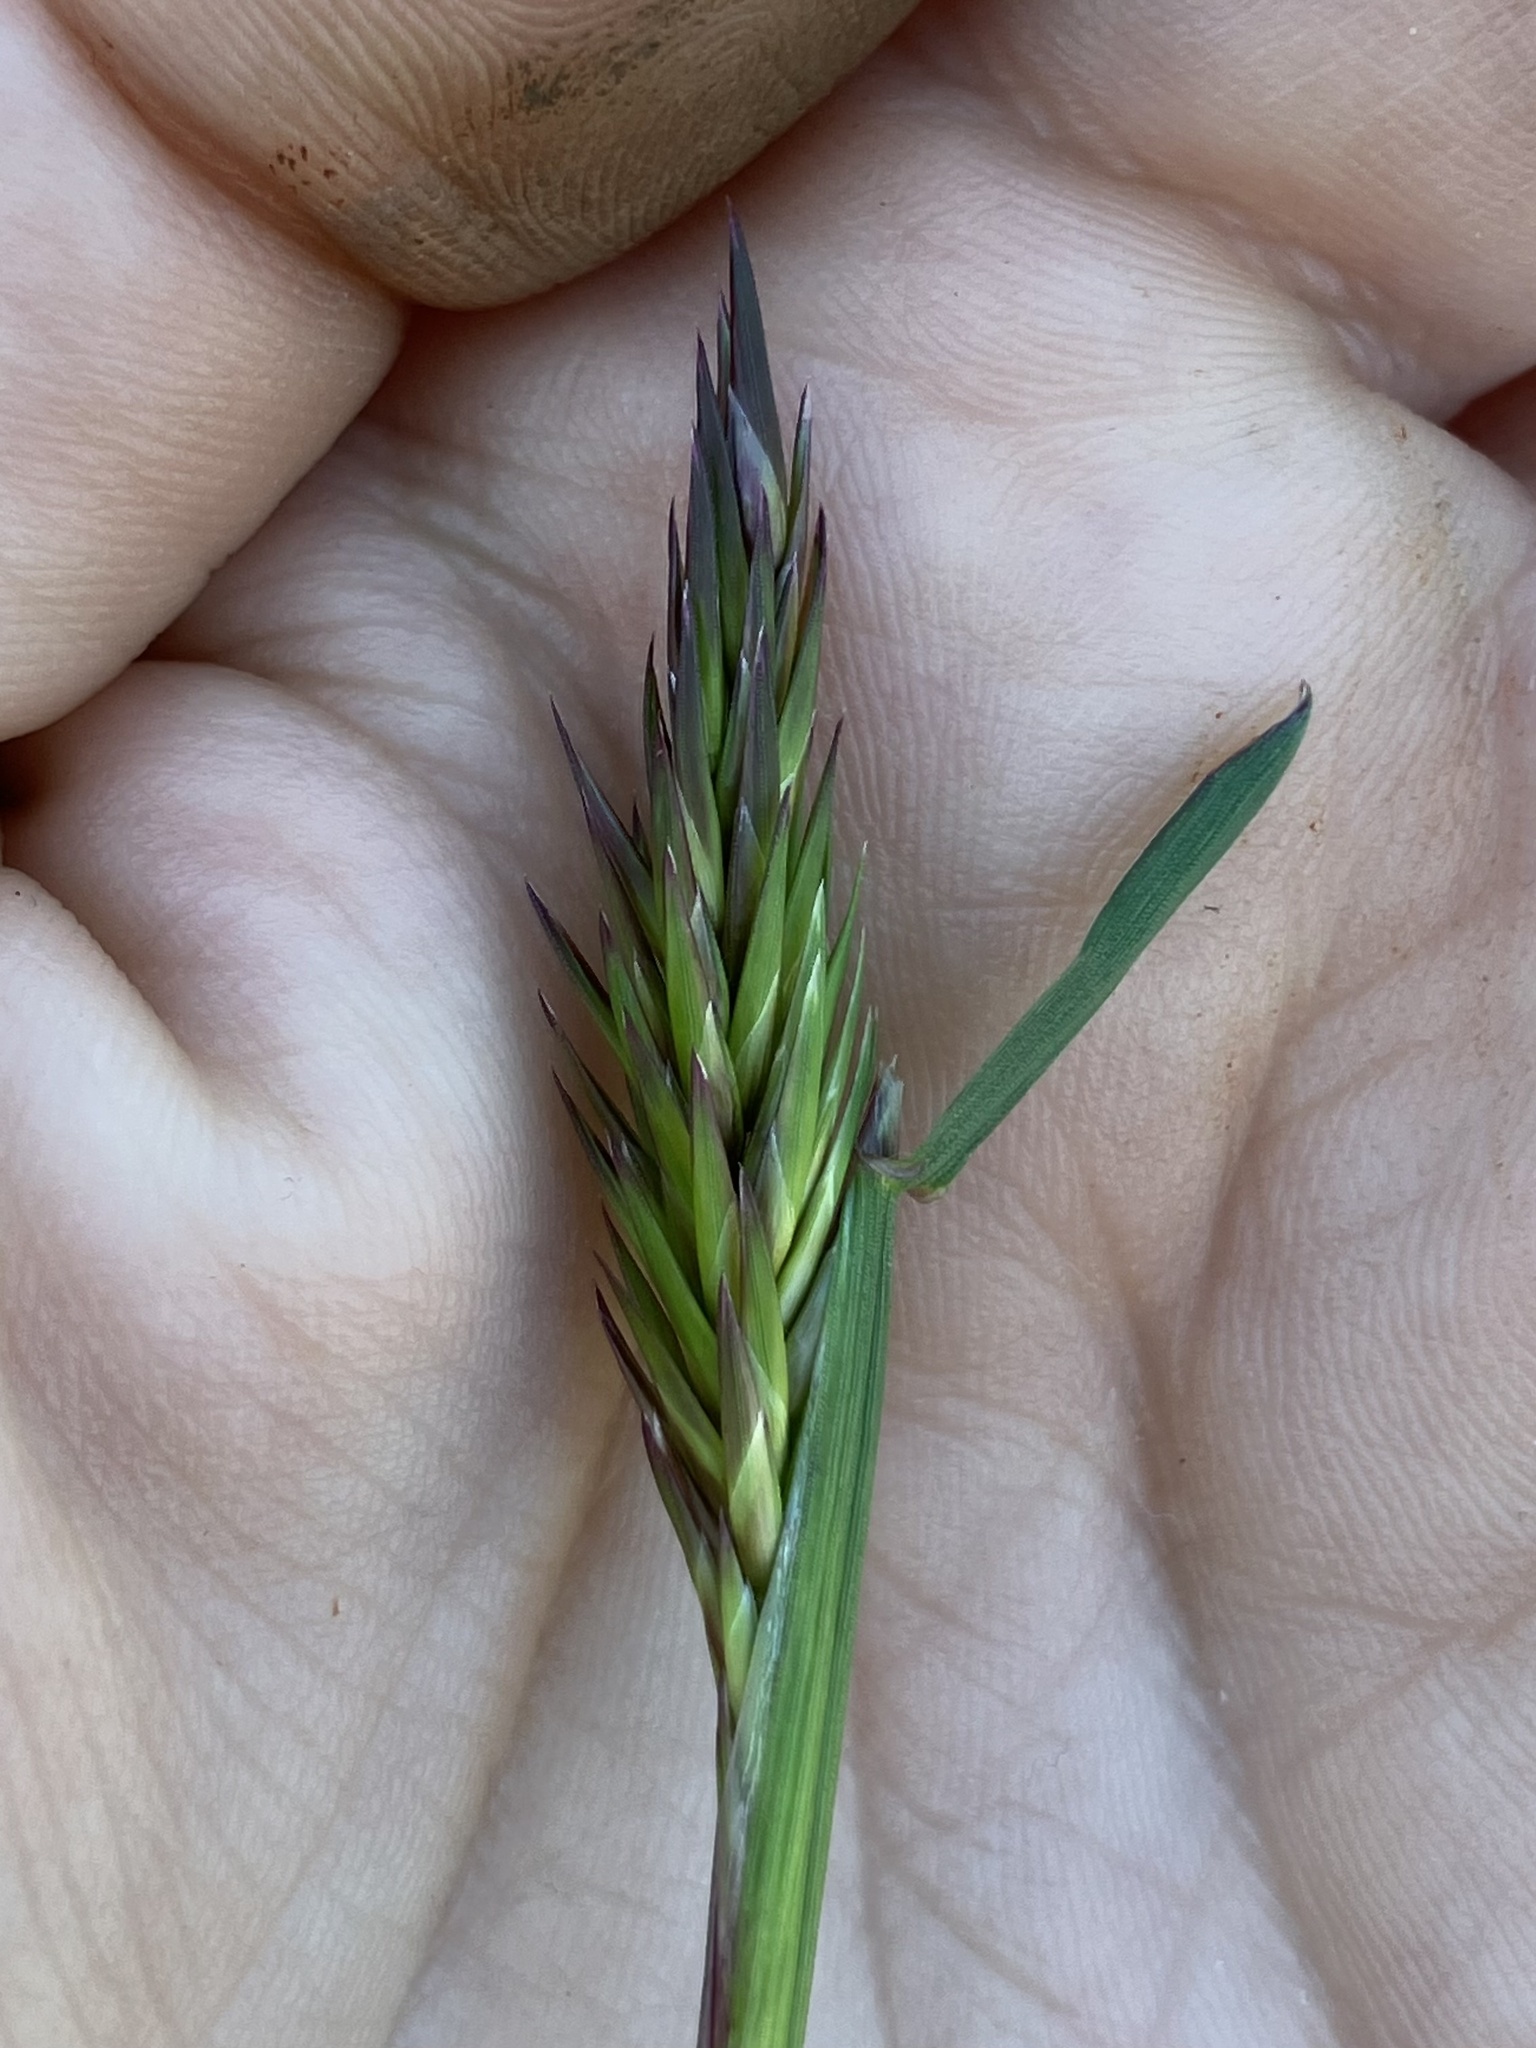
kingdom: Plantae
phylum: Tracheophyta
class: Liliopsida
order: Poales
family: Poaceae
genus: Anthoxanthum
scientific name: Anthoxanthum odoratum
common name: Sweet vernalgrass
